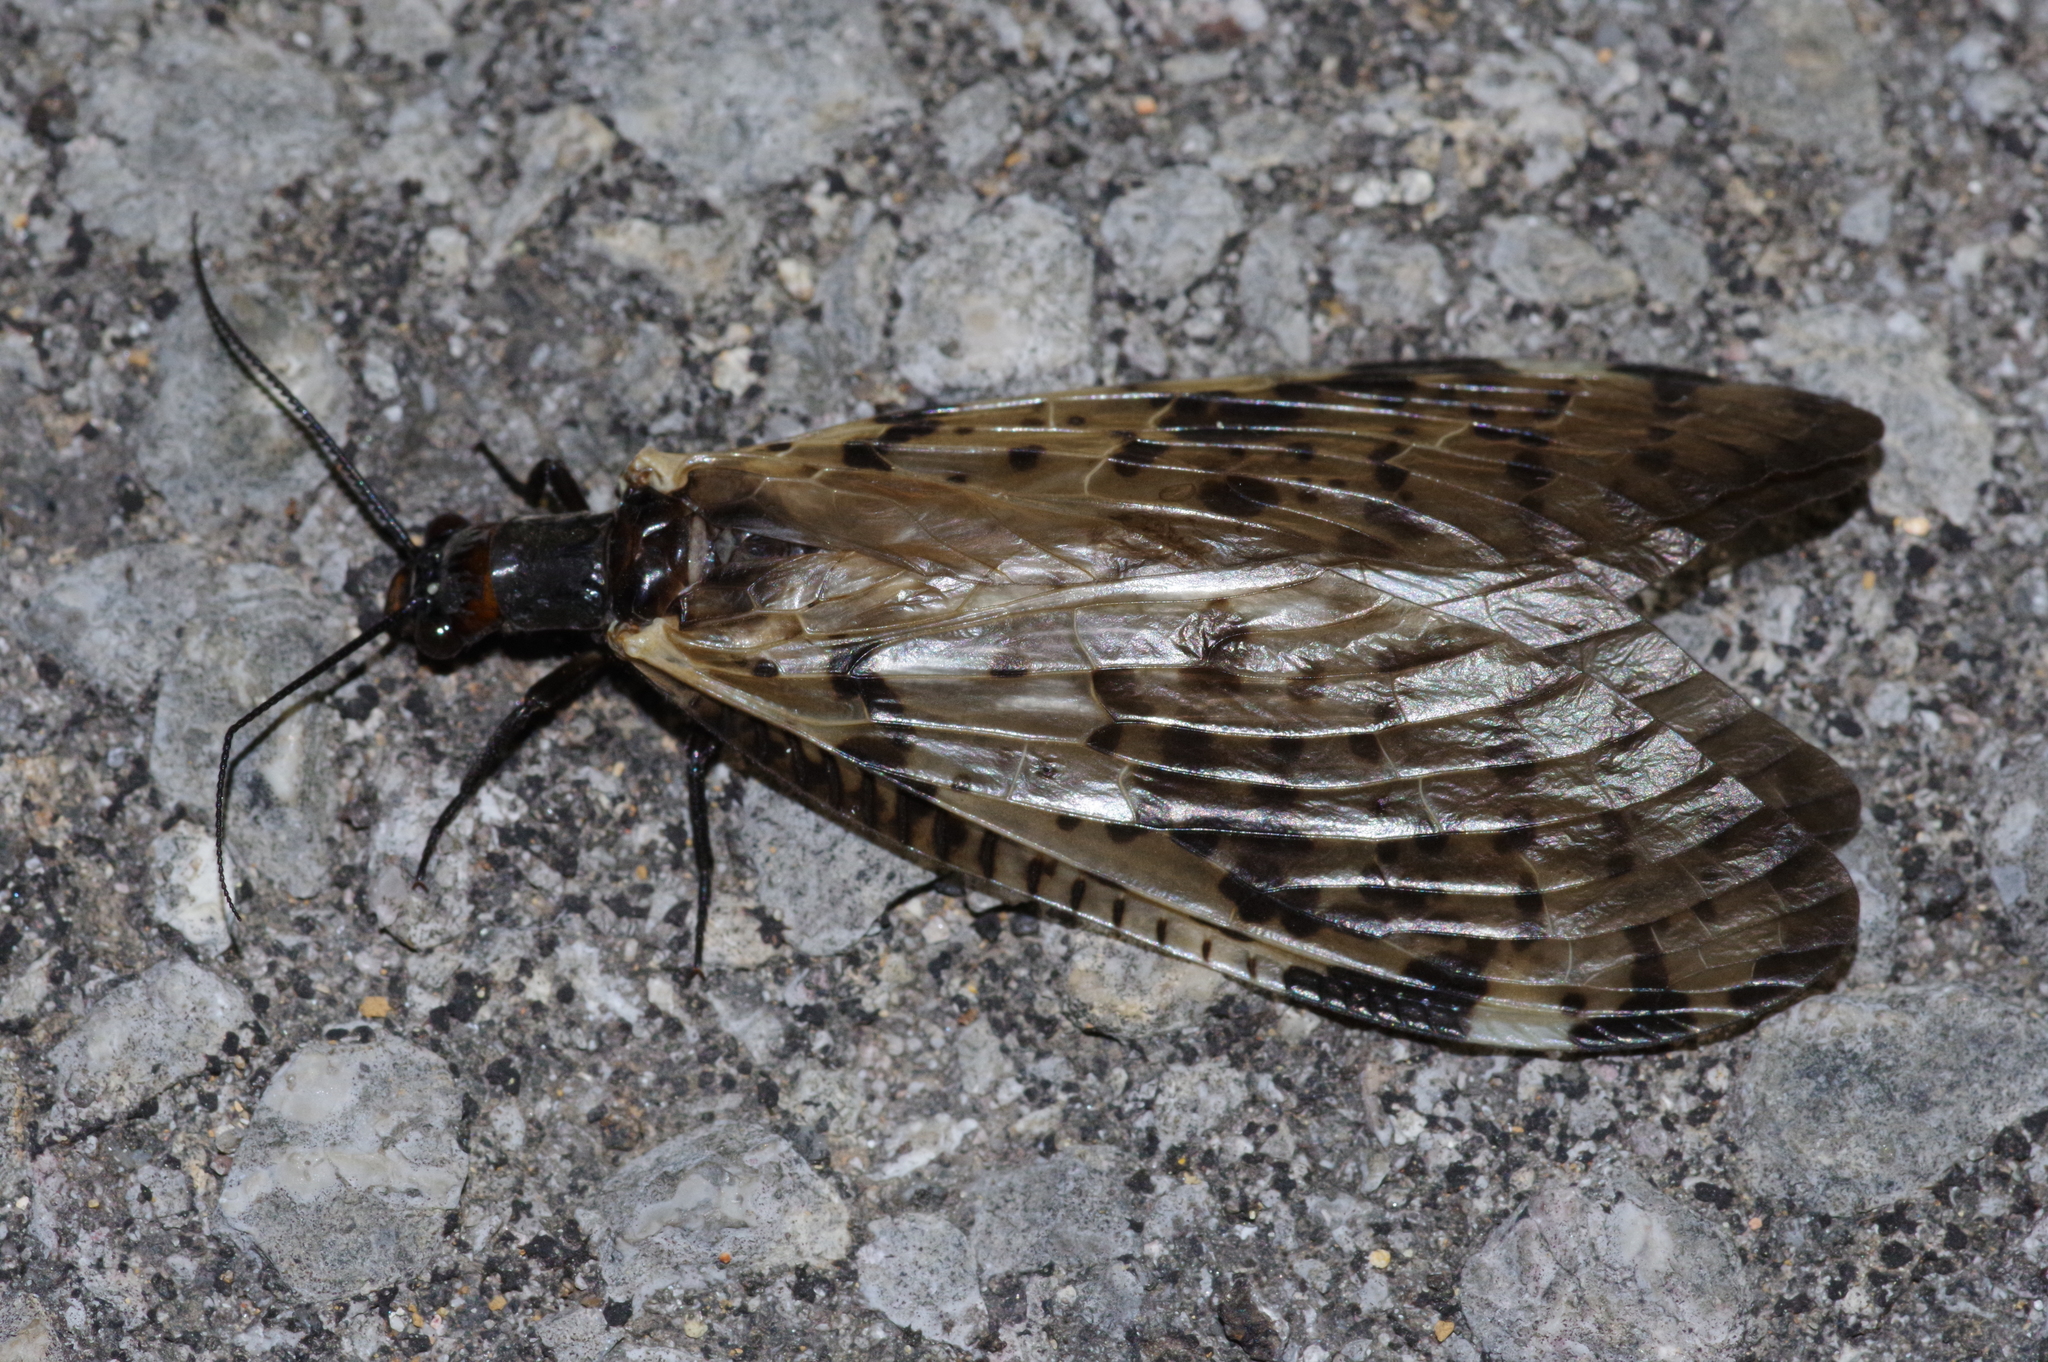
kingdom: Animalia
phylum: Arthropoda
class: Insecta
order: Megaloptera
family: Corydalidae
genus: Neochauliodes
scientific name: Neochauliodes azumai
